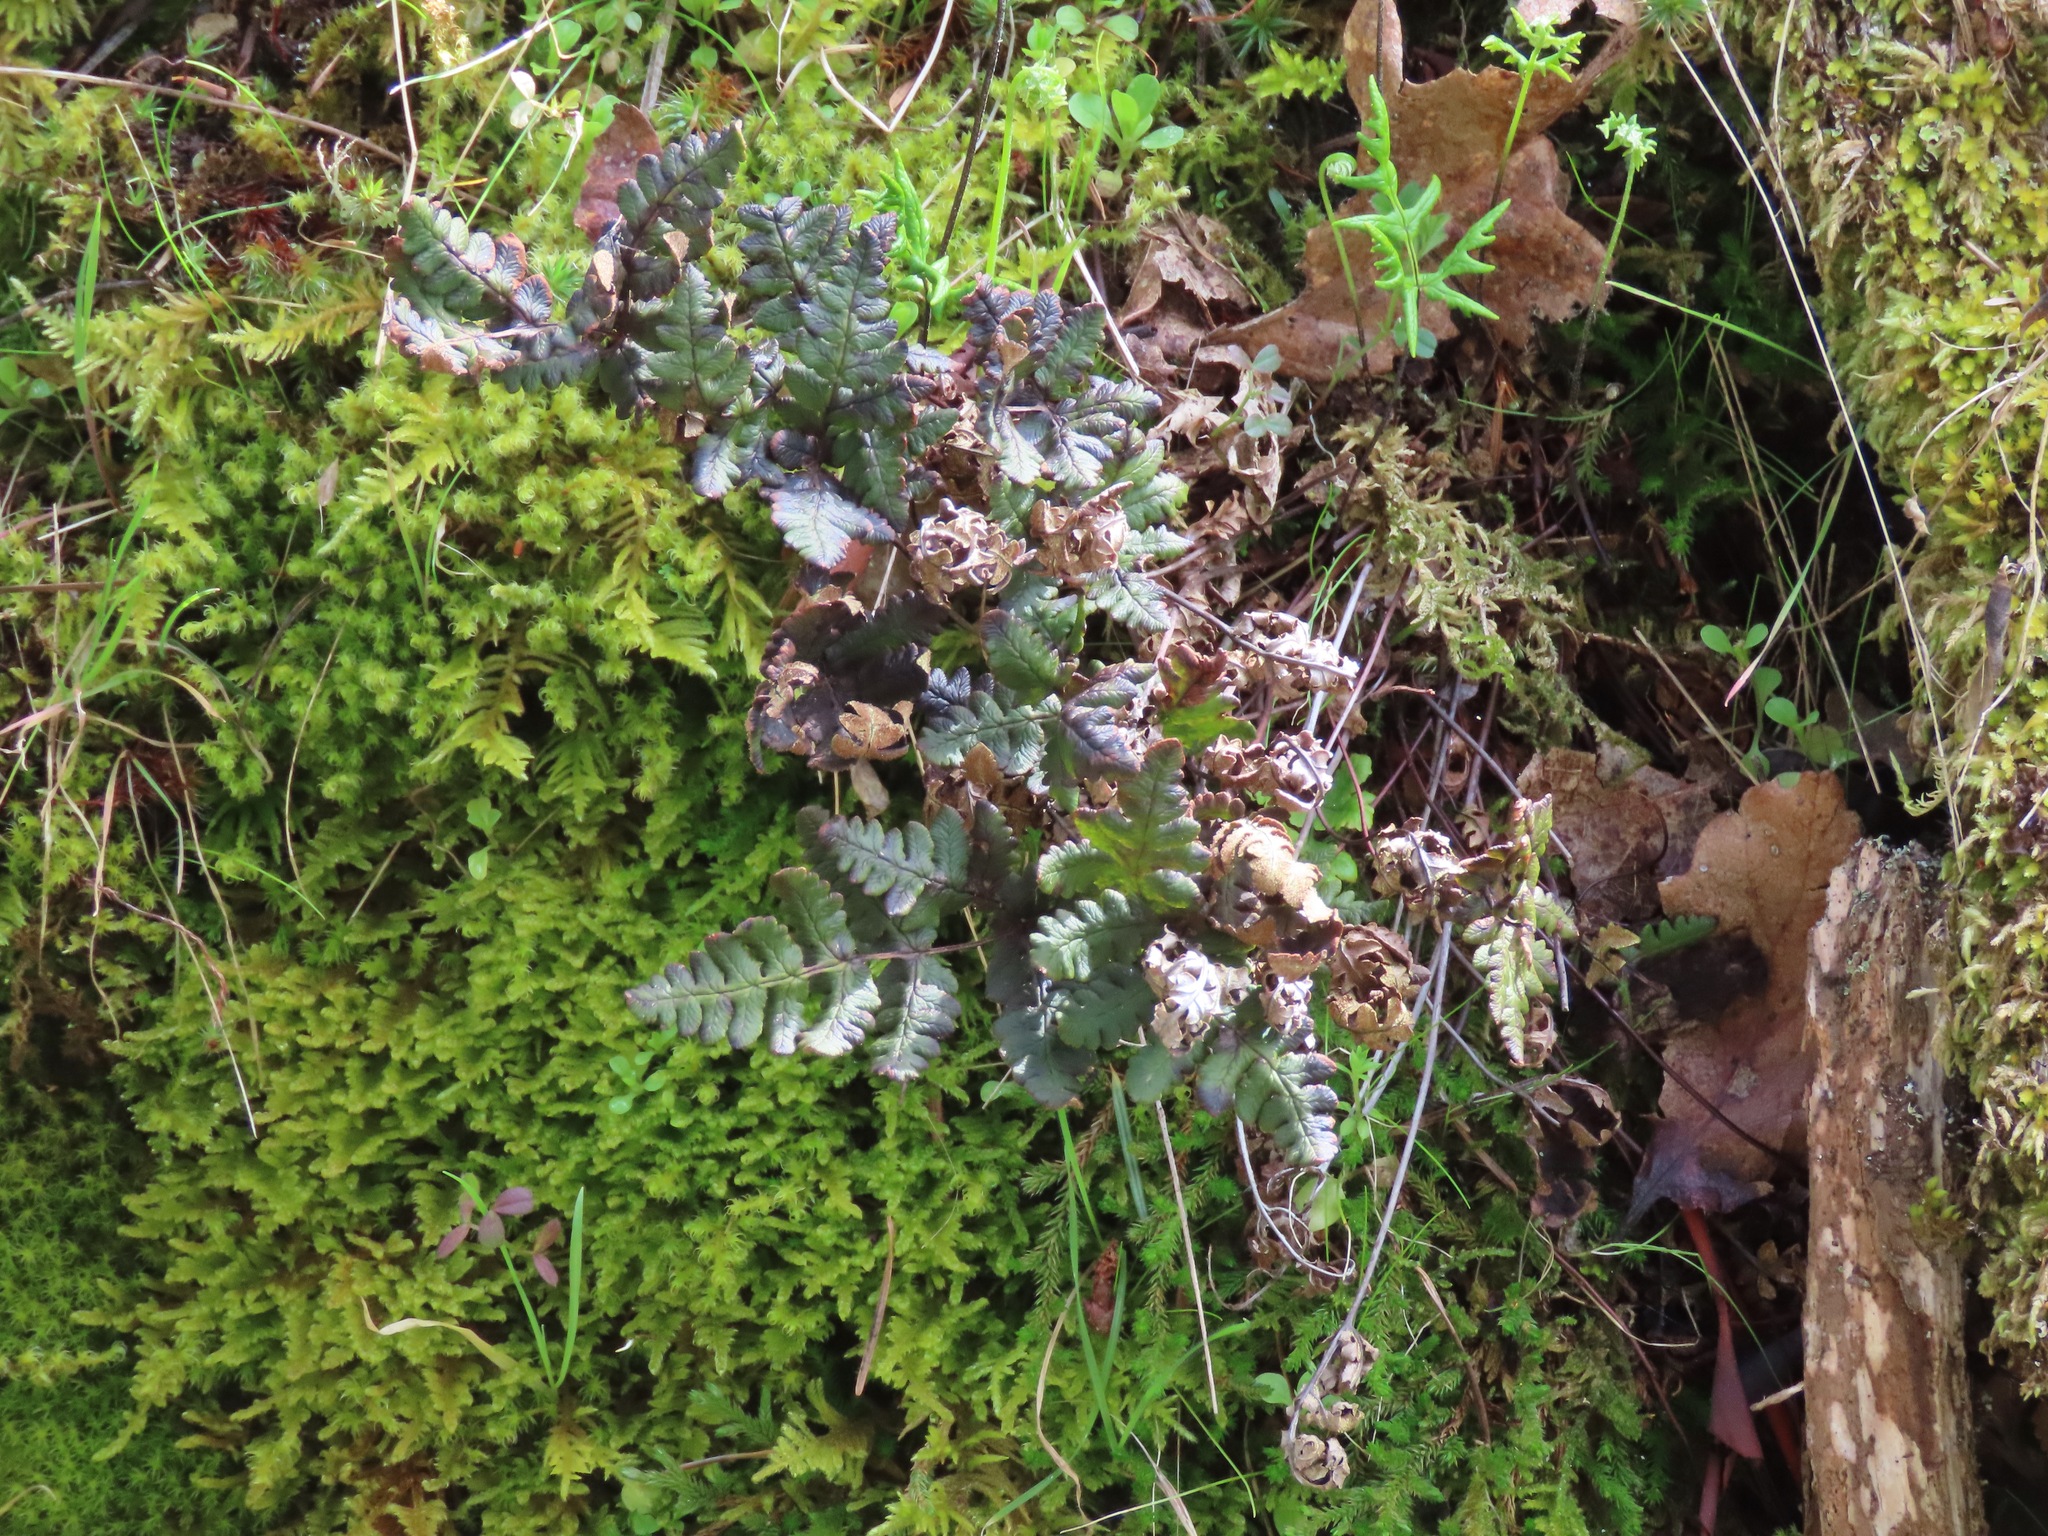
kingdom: Plantae
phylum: Tracheophyta
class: Polypodiopsida
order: Polypodiales
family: Pteridaceae
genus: Pentagramma
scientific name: Pentagramma triangularis
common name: Gold fern
